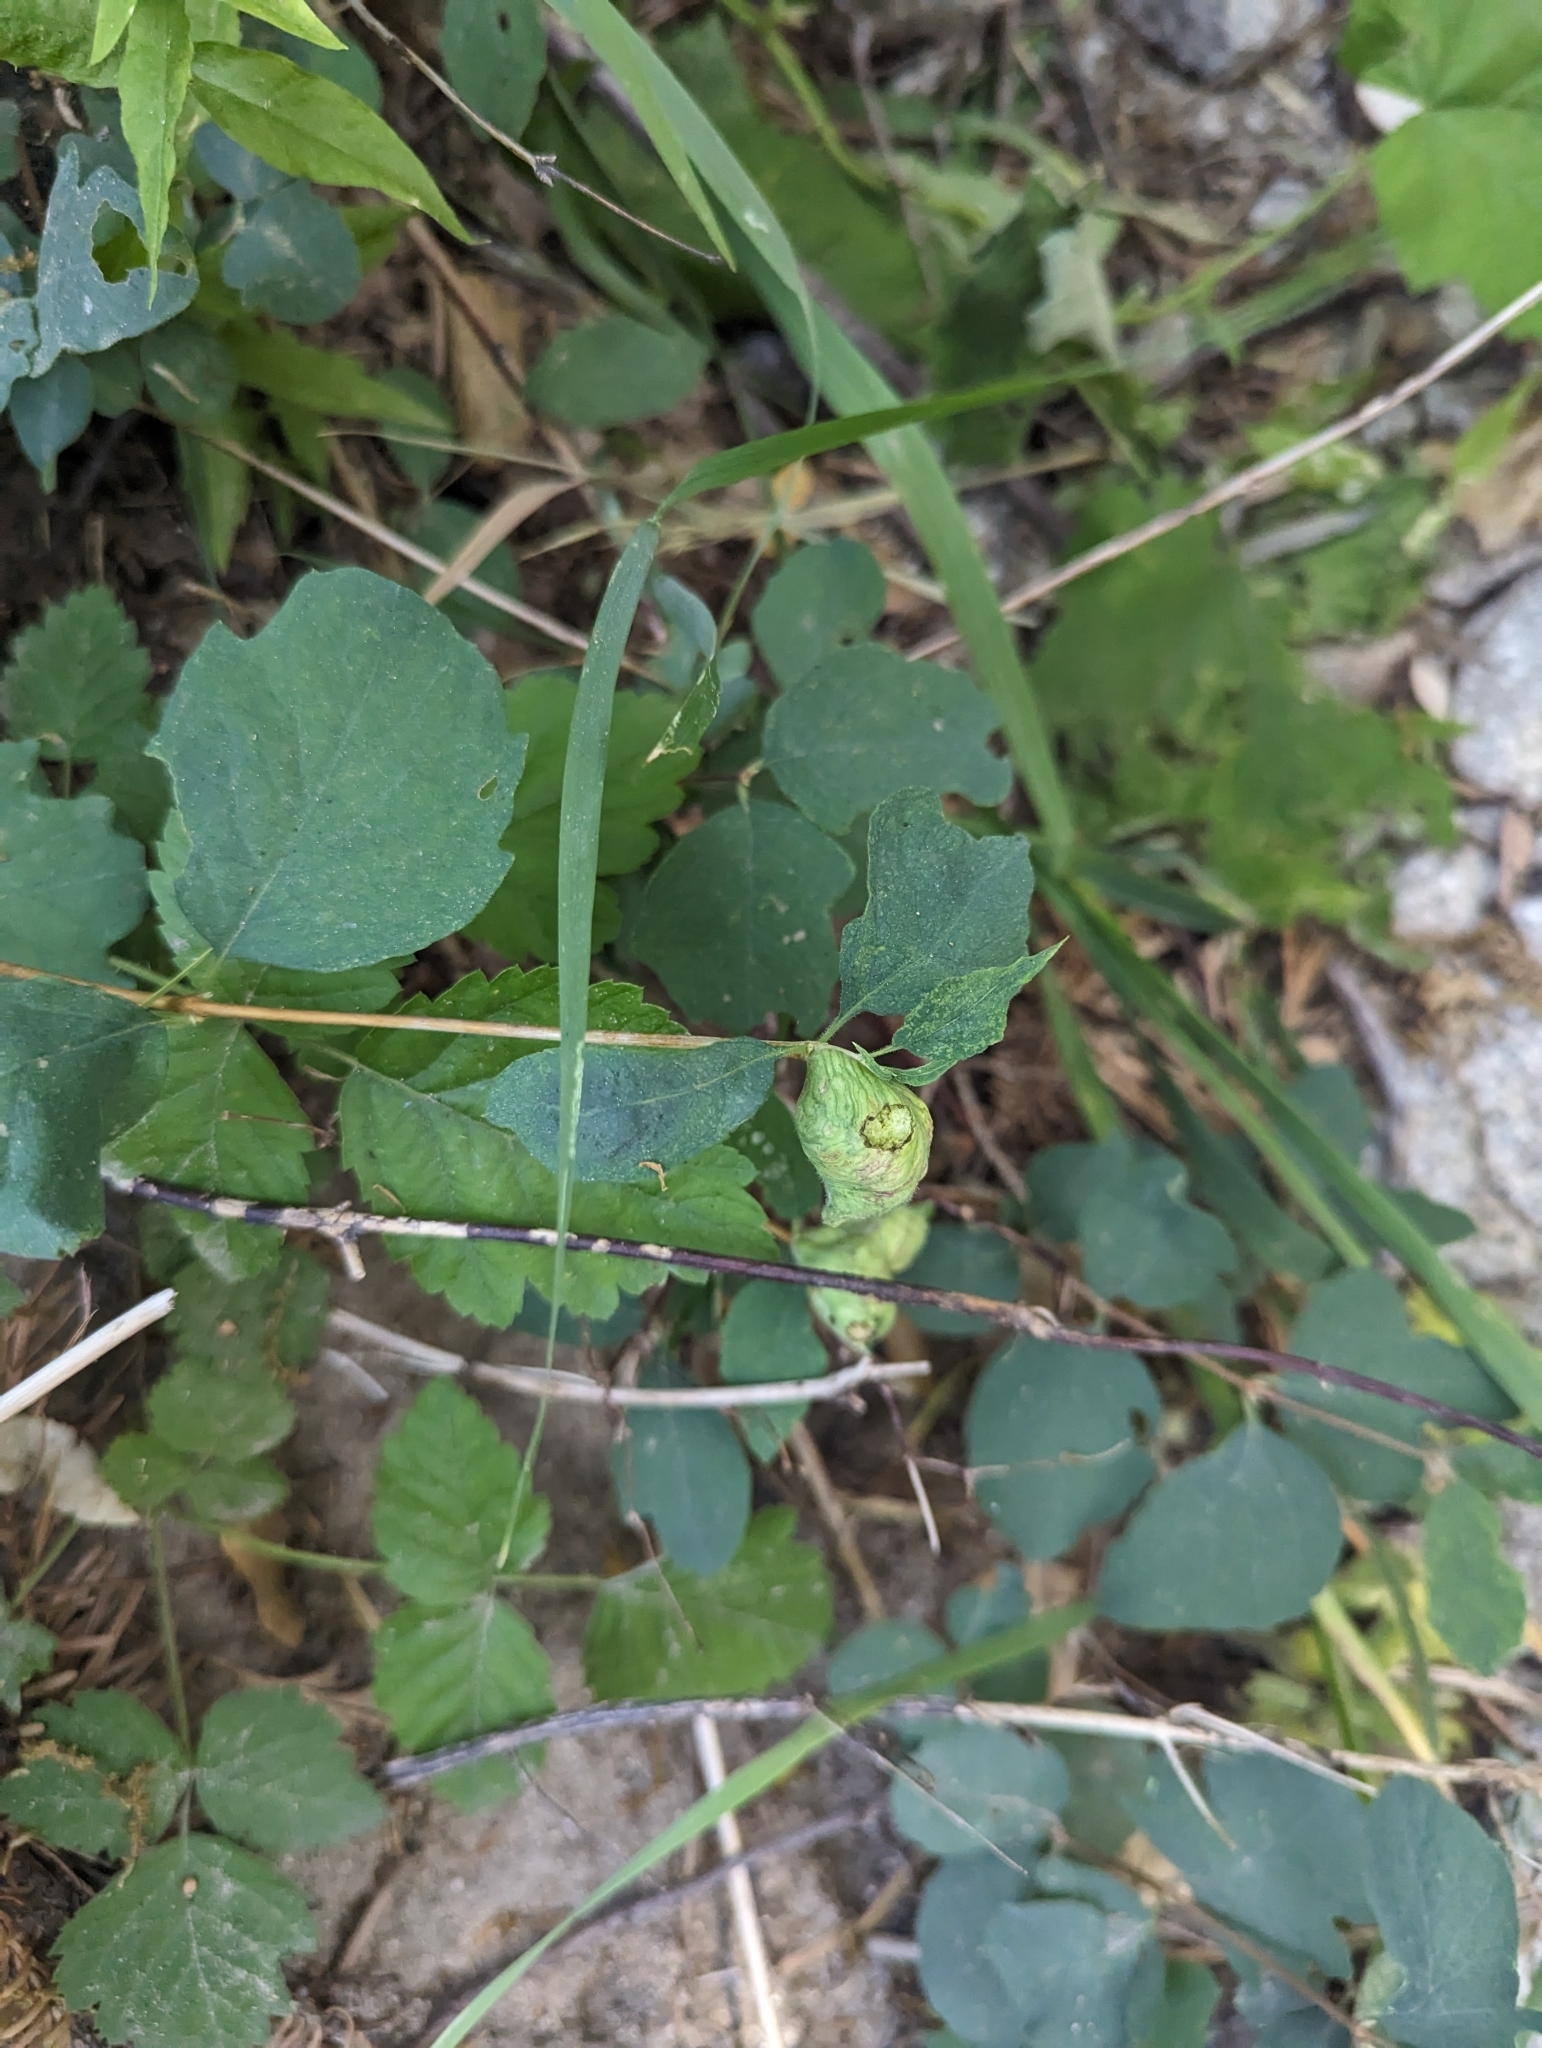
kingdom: Animalia
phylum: Arthropoda
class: Insecta
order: Hymenoptera
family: Tenthredinidae
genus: Blennogeneris
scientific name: Blennogeneris spissipes
